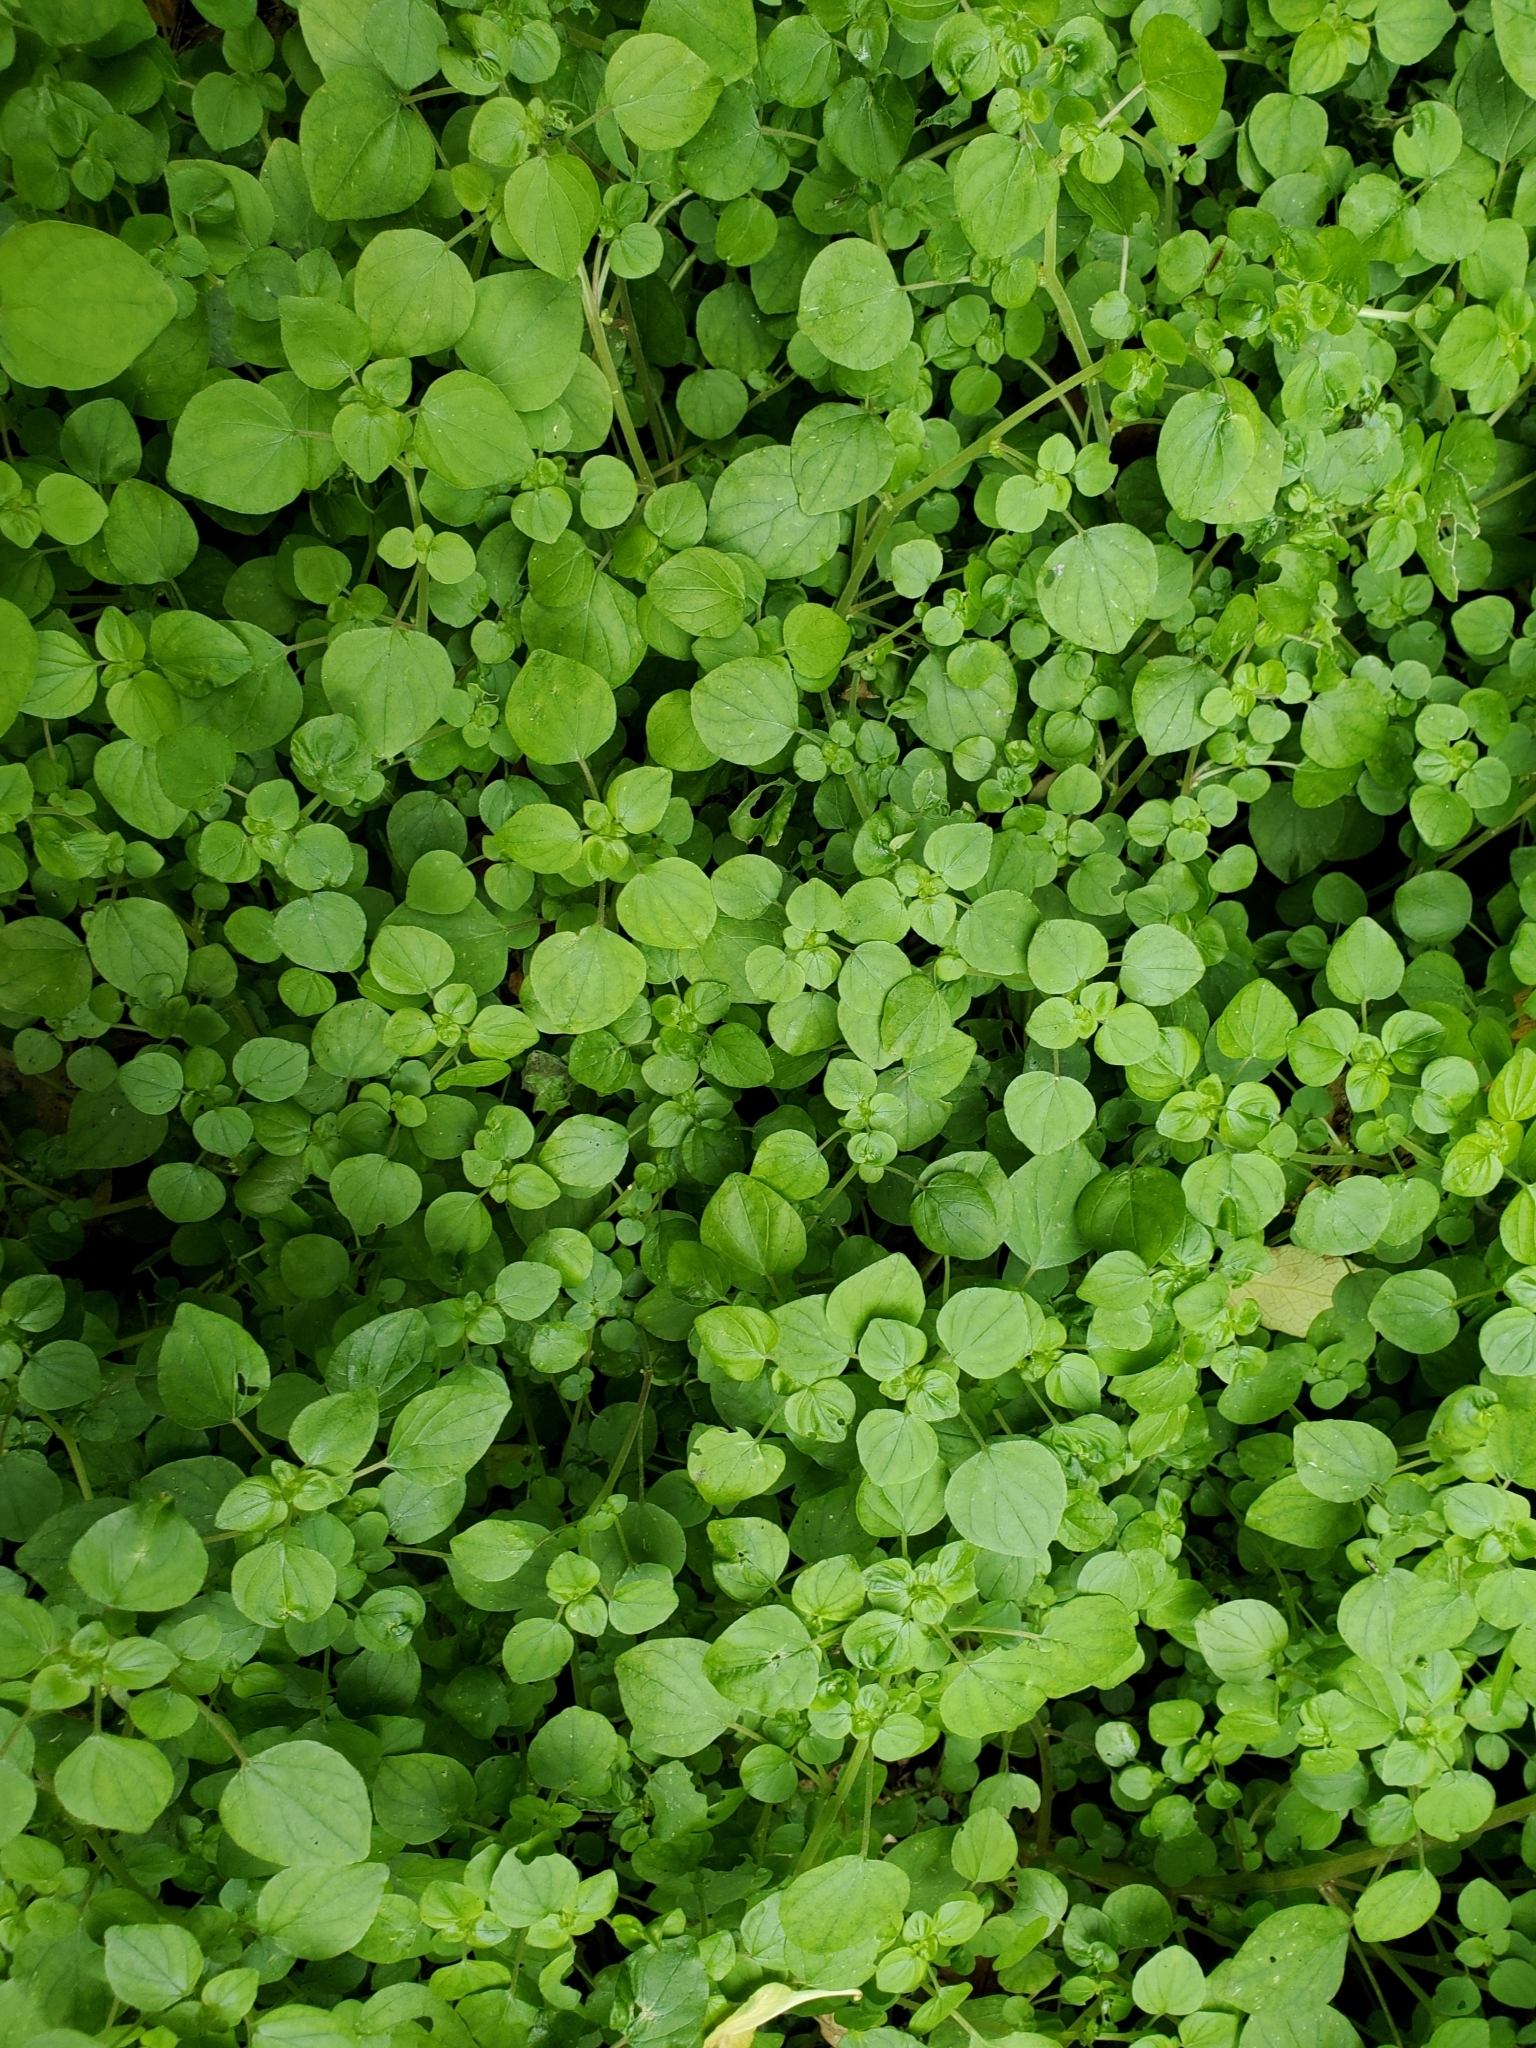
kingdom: Plantae
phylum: Tracheophyta
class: Magnoliopsida
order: Rosales
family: Urticaceae
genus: Parietaria
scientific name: Parietaria debilis
